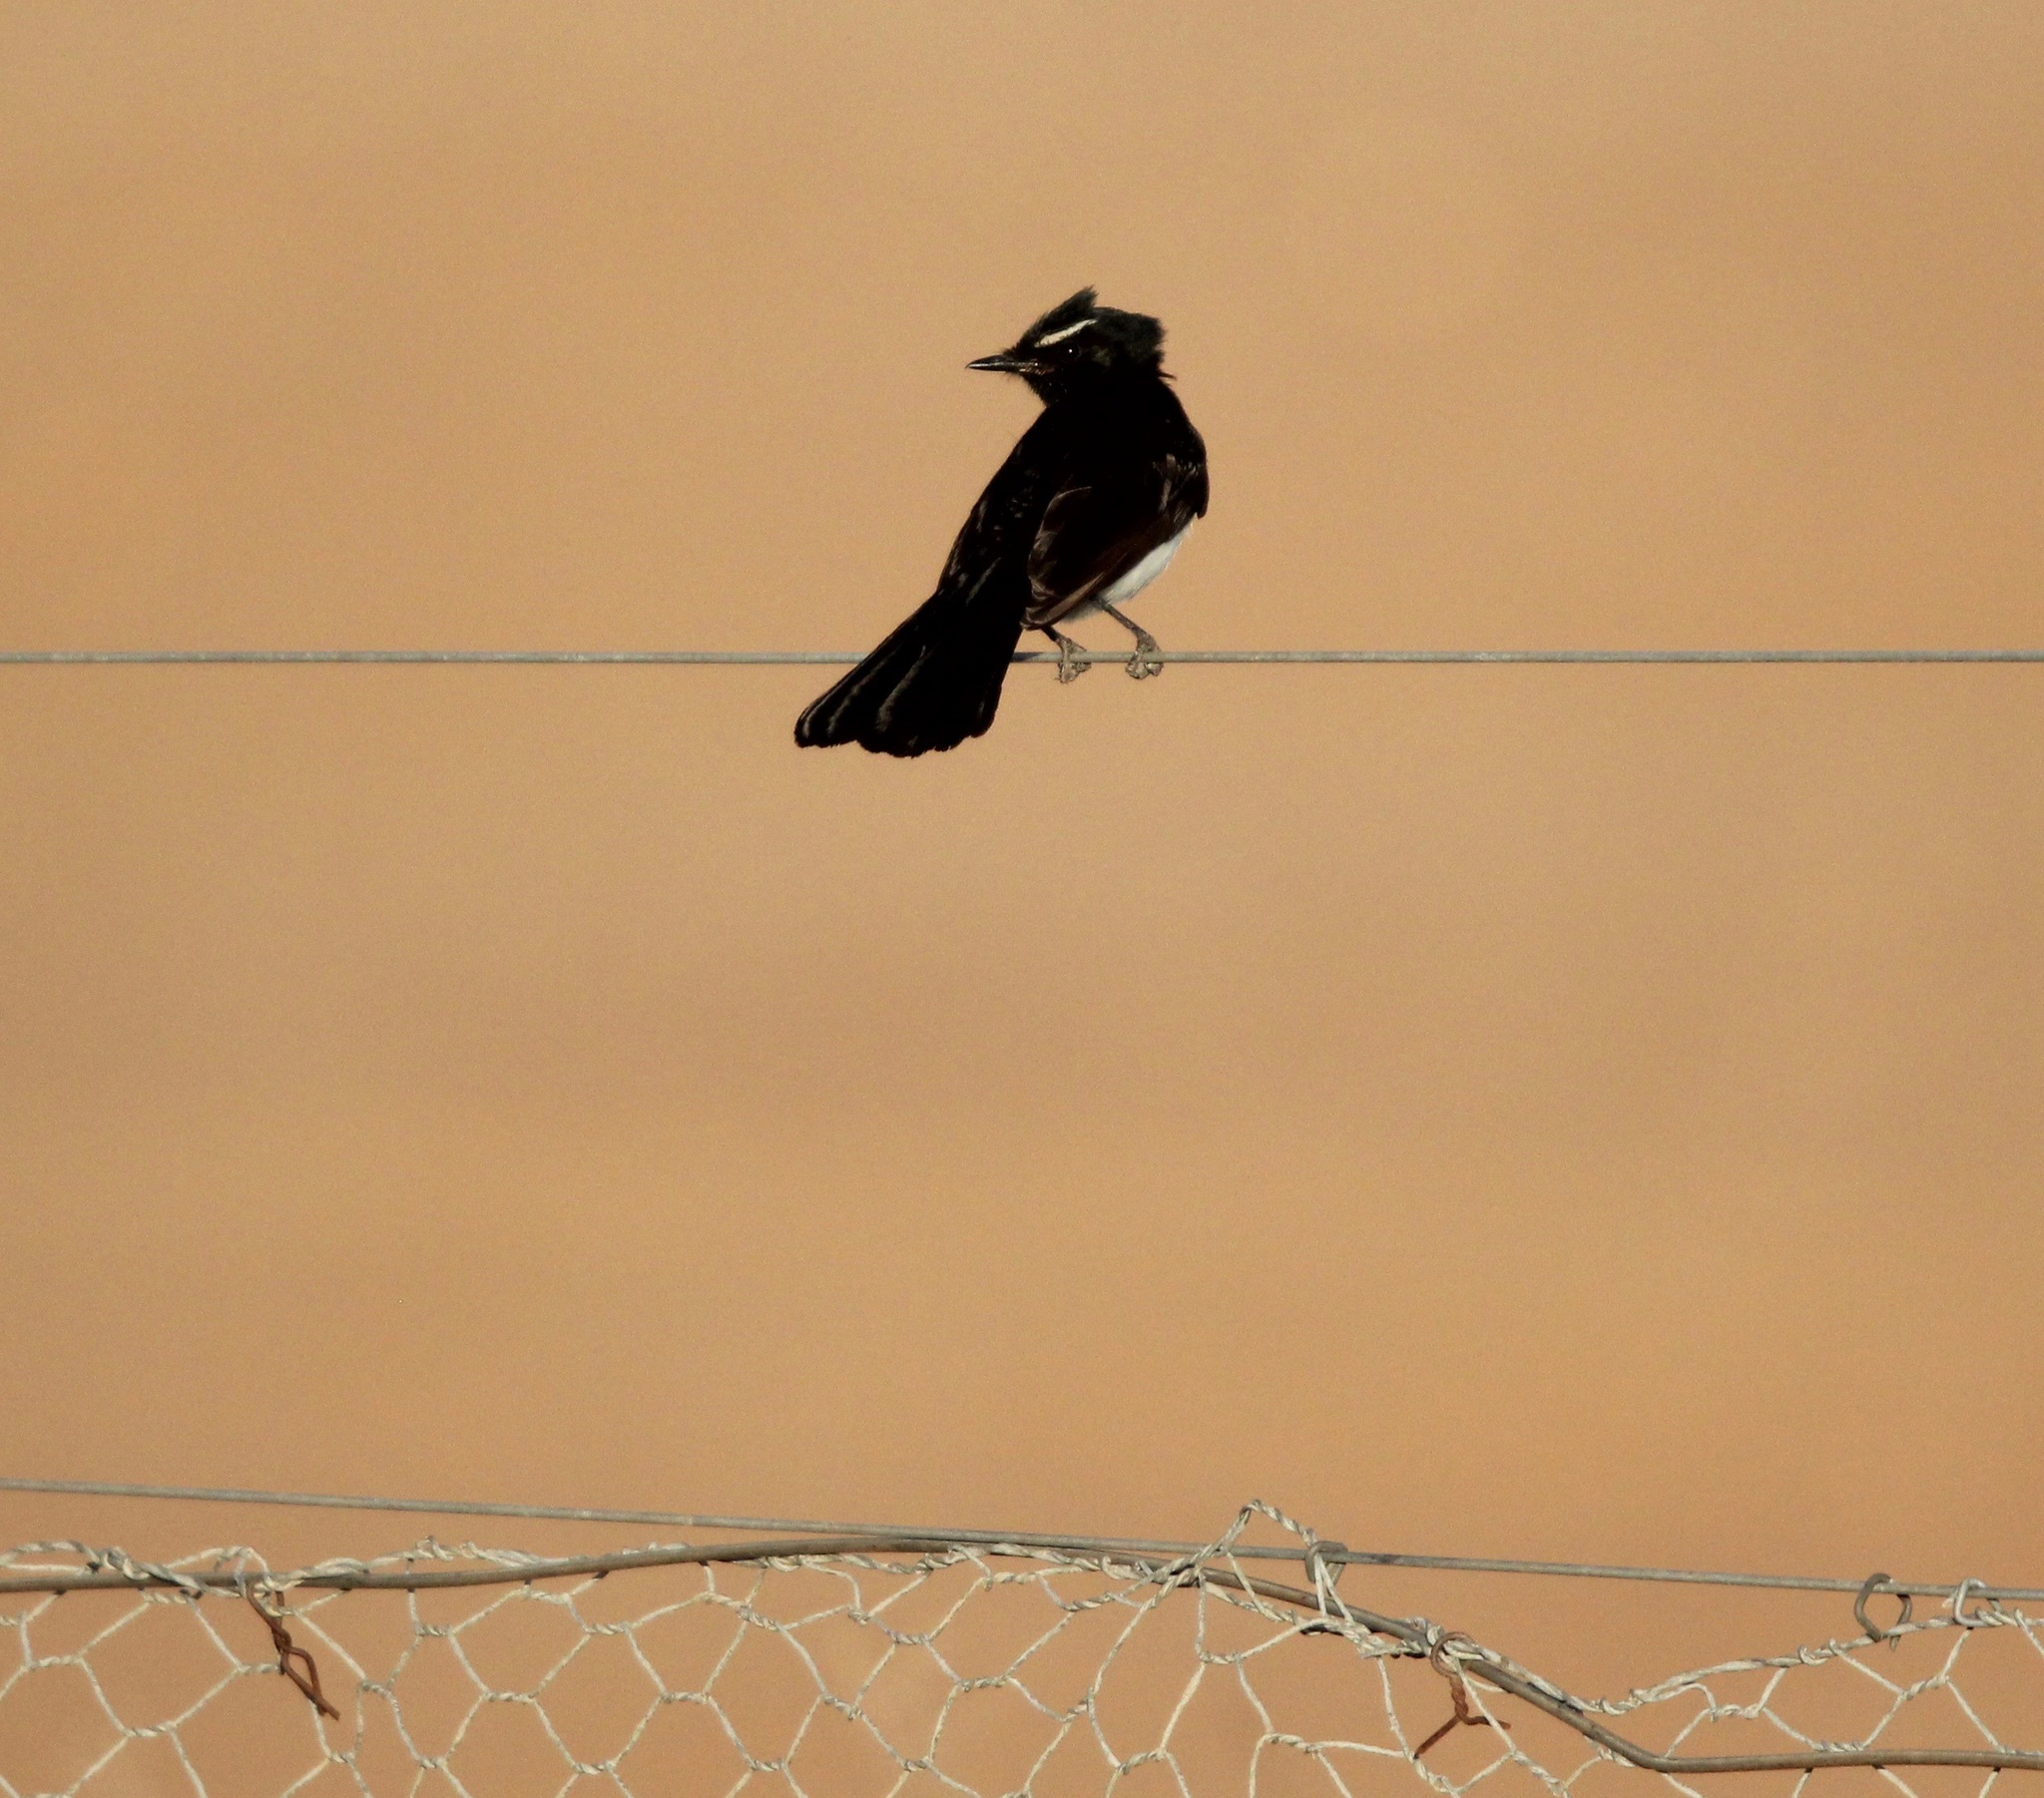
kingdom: Animalia
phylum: Chordata
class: Aves
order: Passeriformes
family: Rhipiduridae
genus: Rhipidura
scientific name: Rhipidura leucophrys
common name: Willie wagtail
